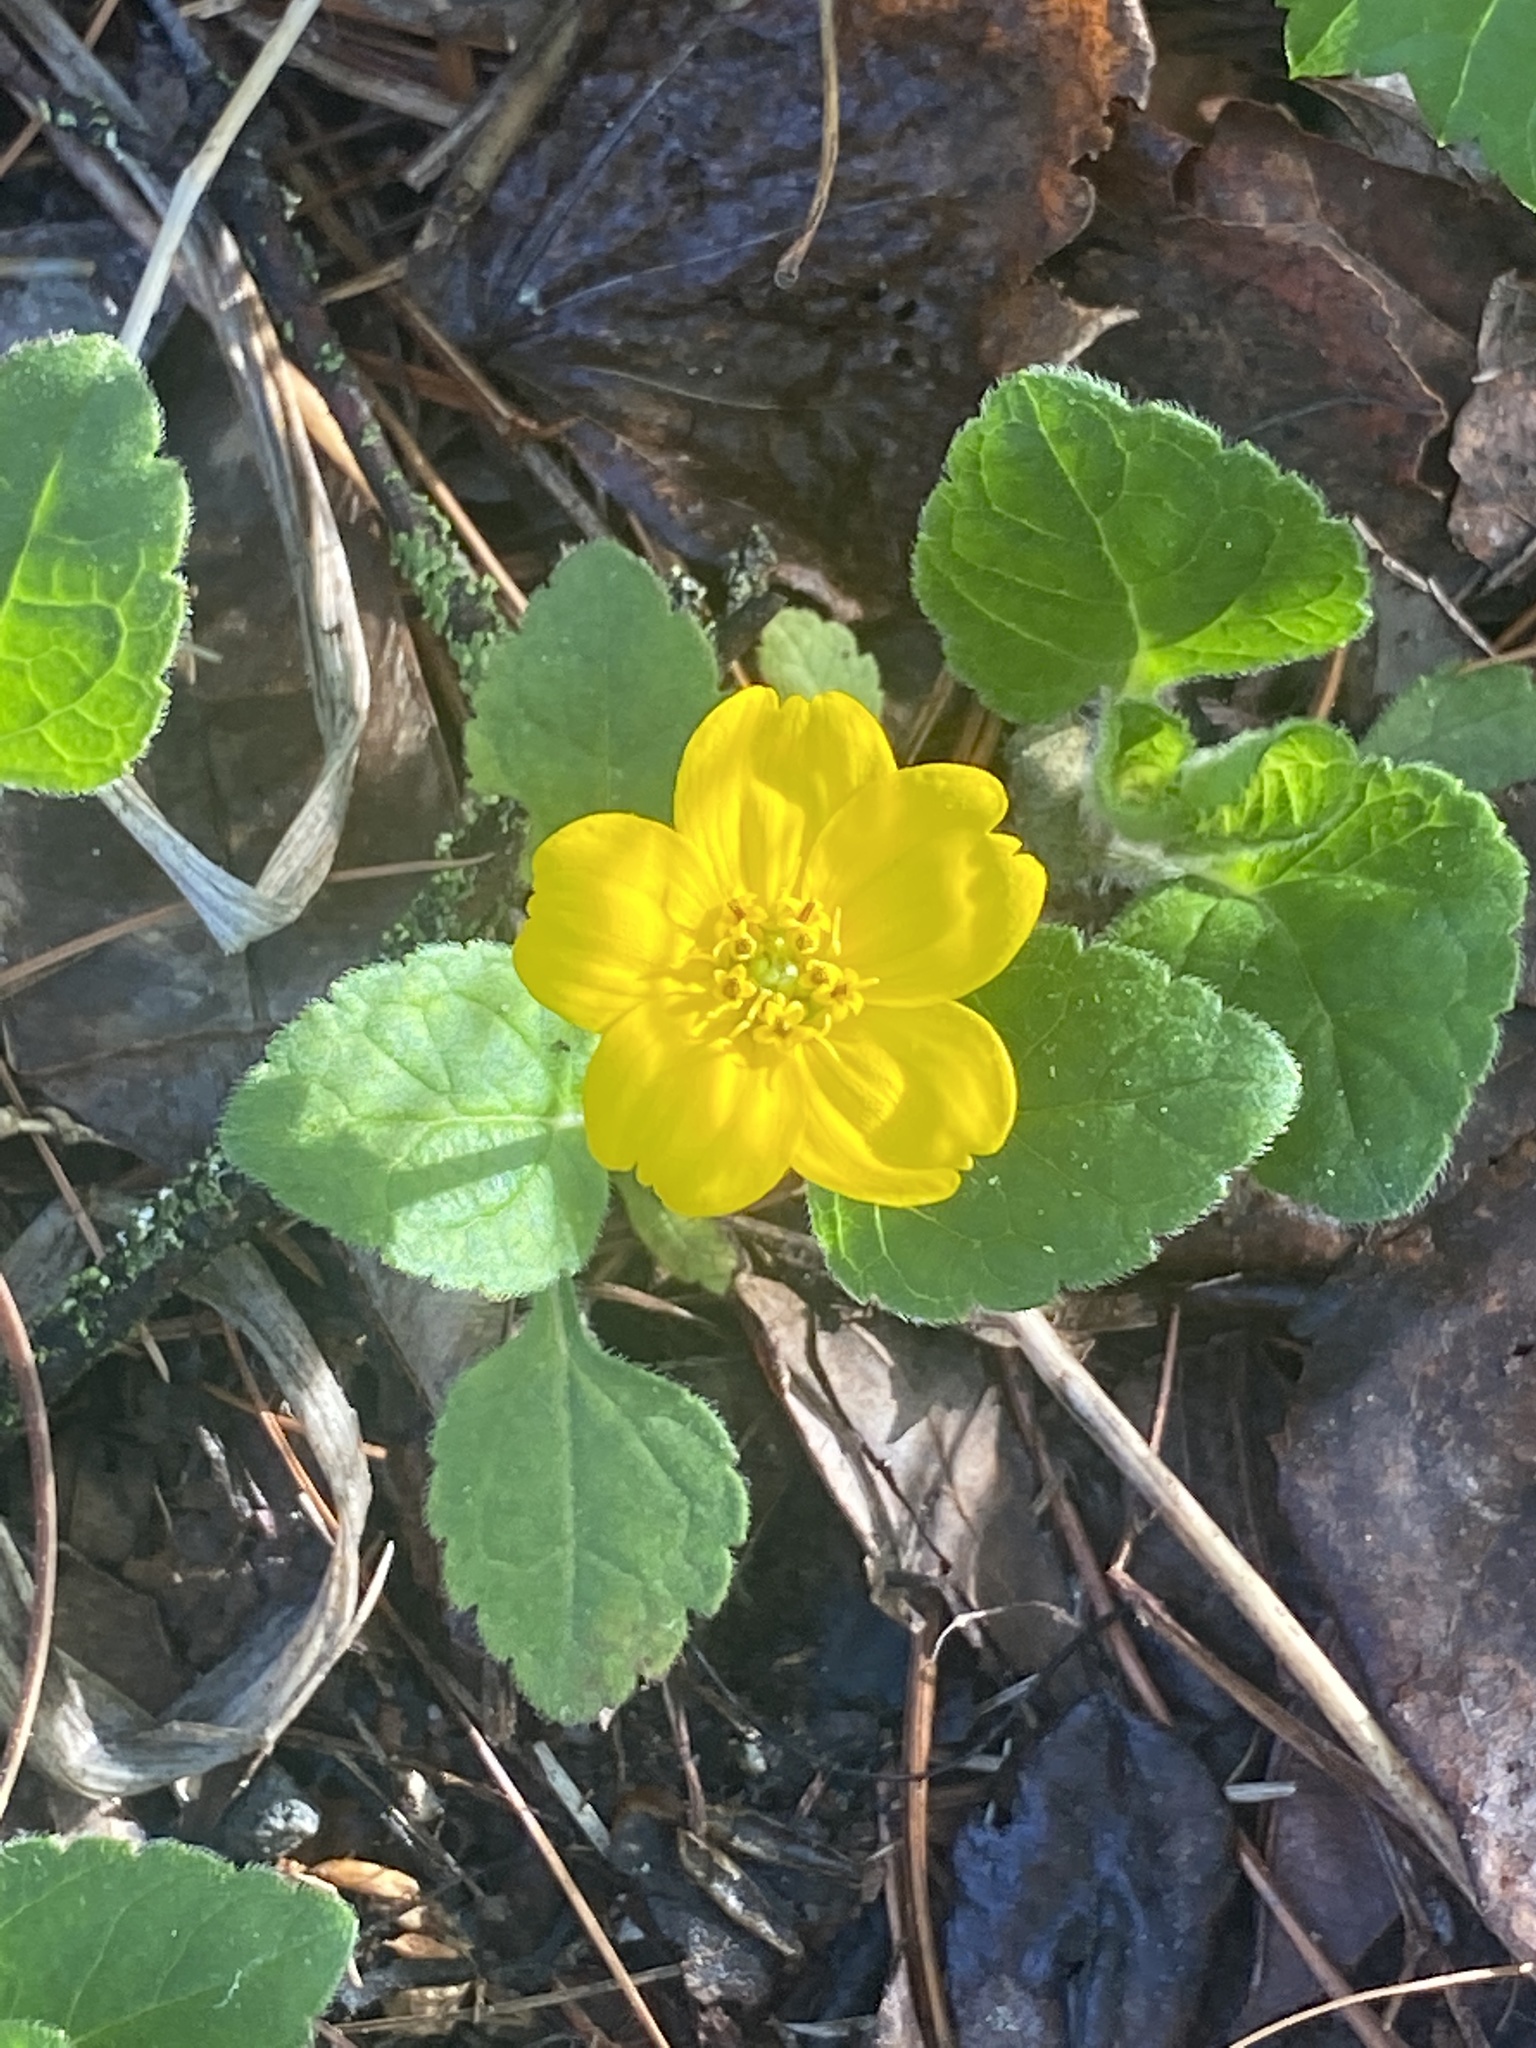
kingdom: Plantae
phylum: Tracheophyta
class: Magnoliopsida
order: Asterales
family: Asteraceae
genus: Chrysogonum
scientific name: Chrysogonum virginianum
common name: Golden-knee
